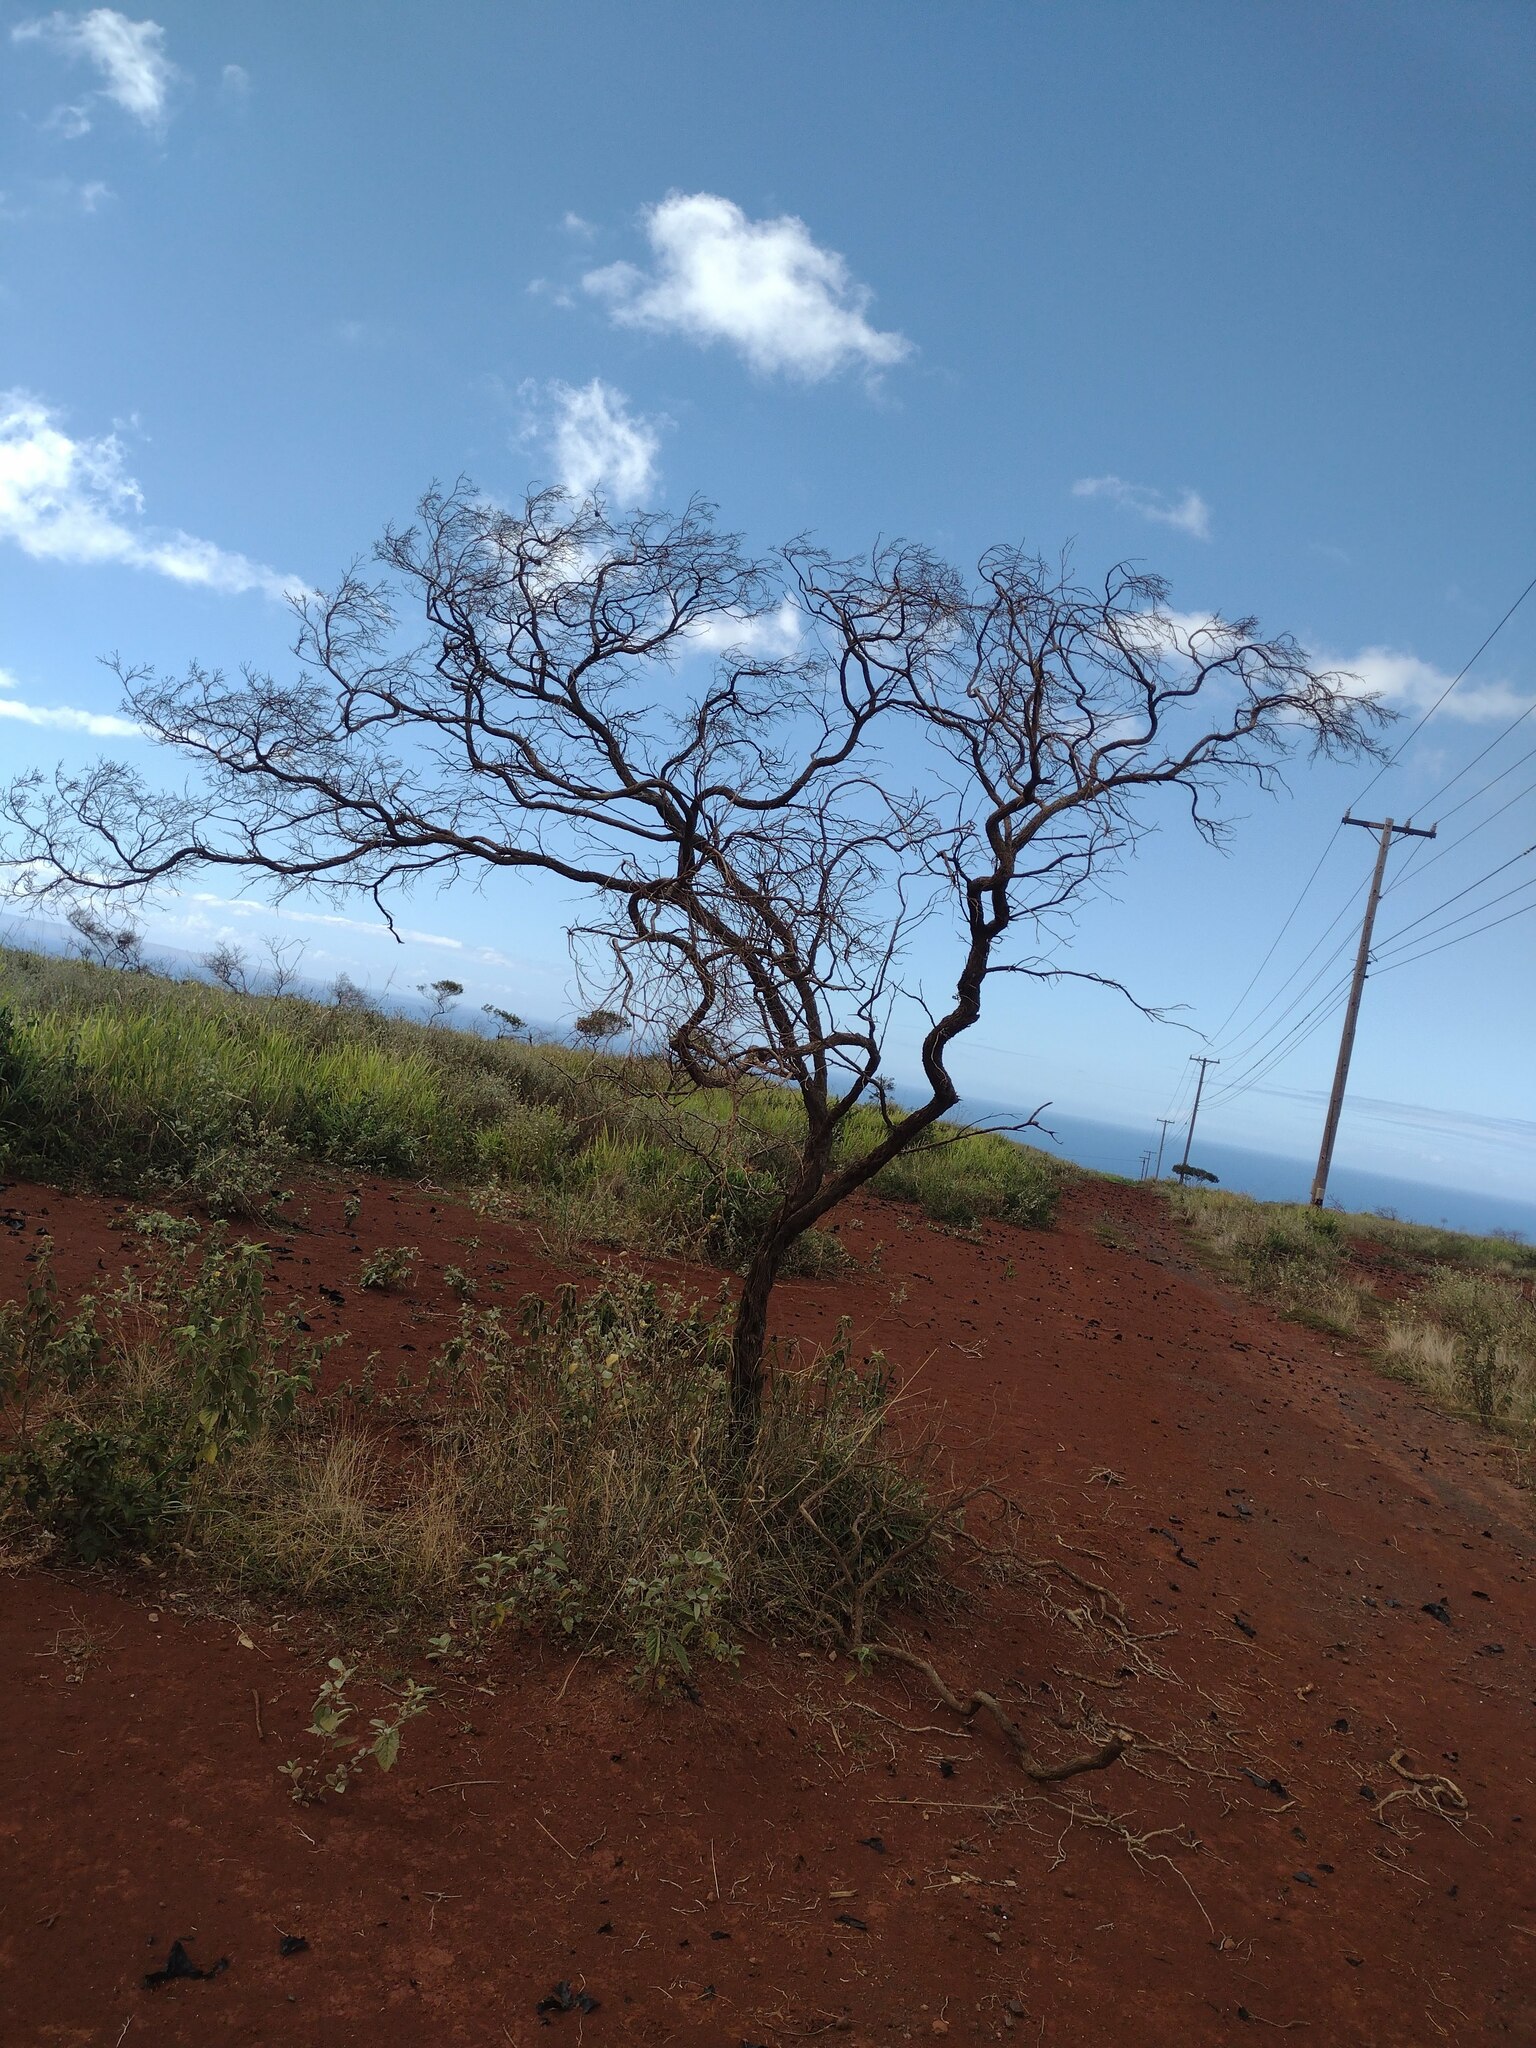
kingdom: Plantae
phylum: Tracheophyta
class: Magnoliopsida
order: Sapindales
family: Sapindaceae
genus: Dodonaea
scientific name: Dodonaea viscosa
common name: Hopbush
